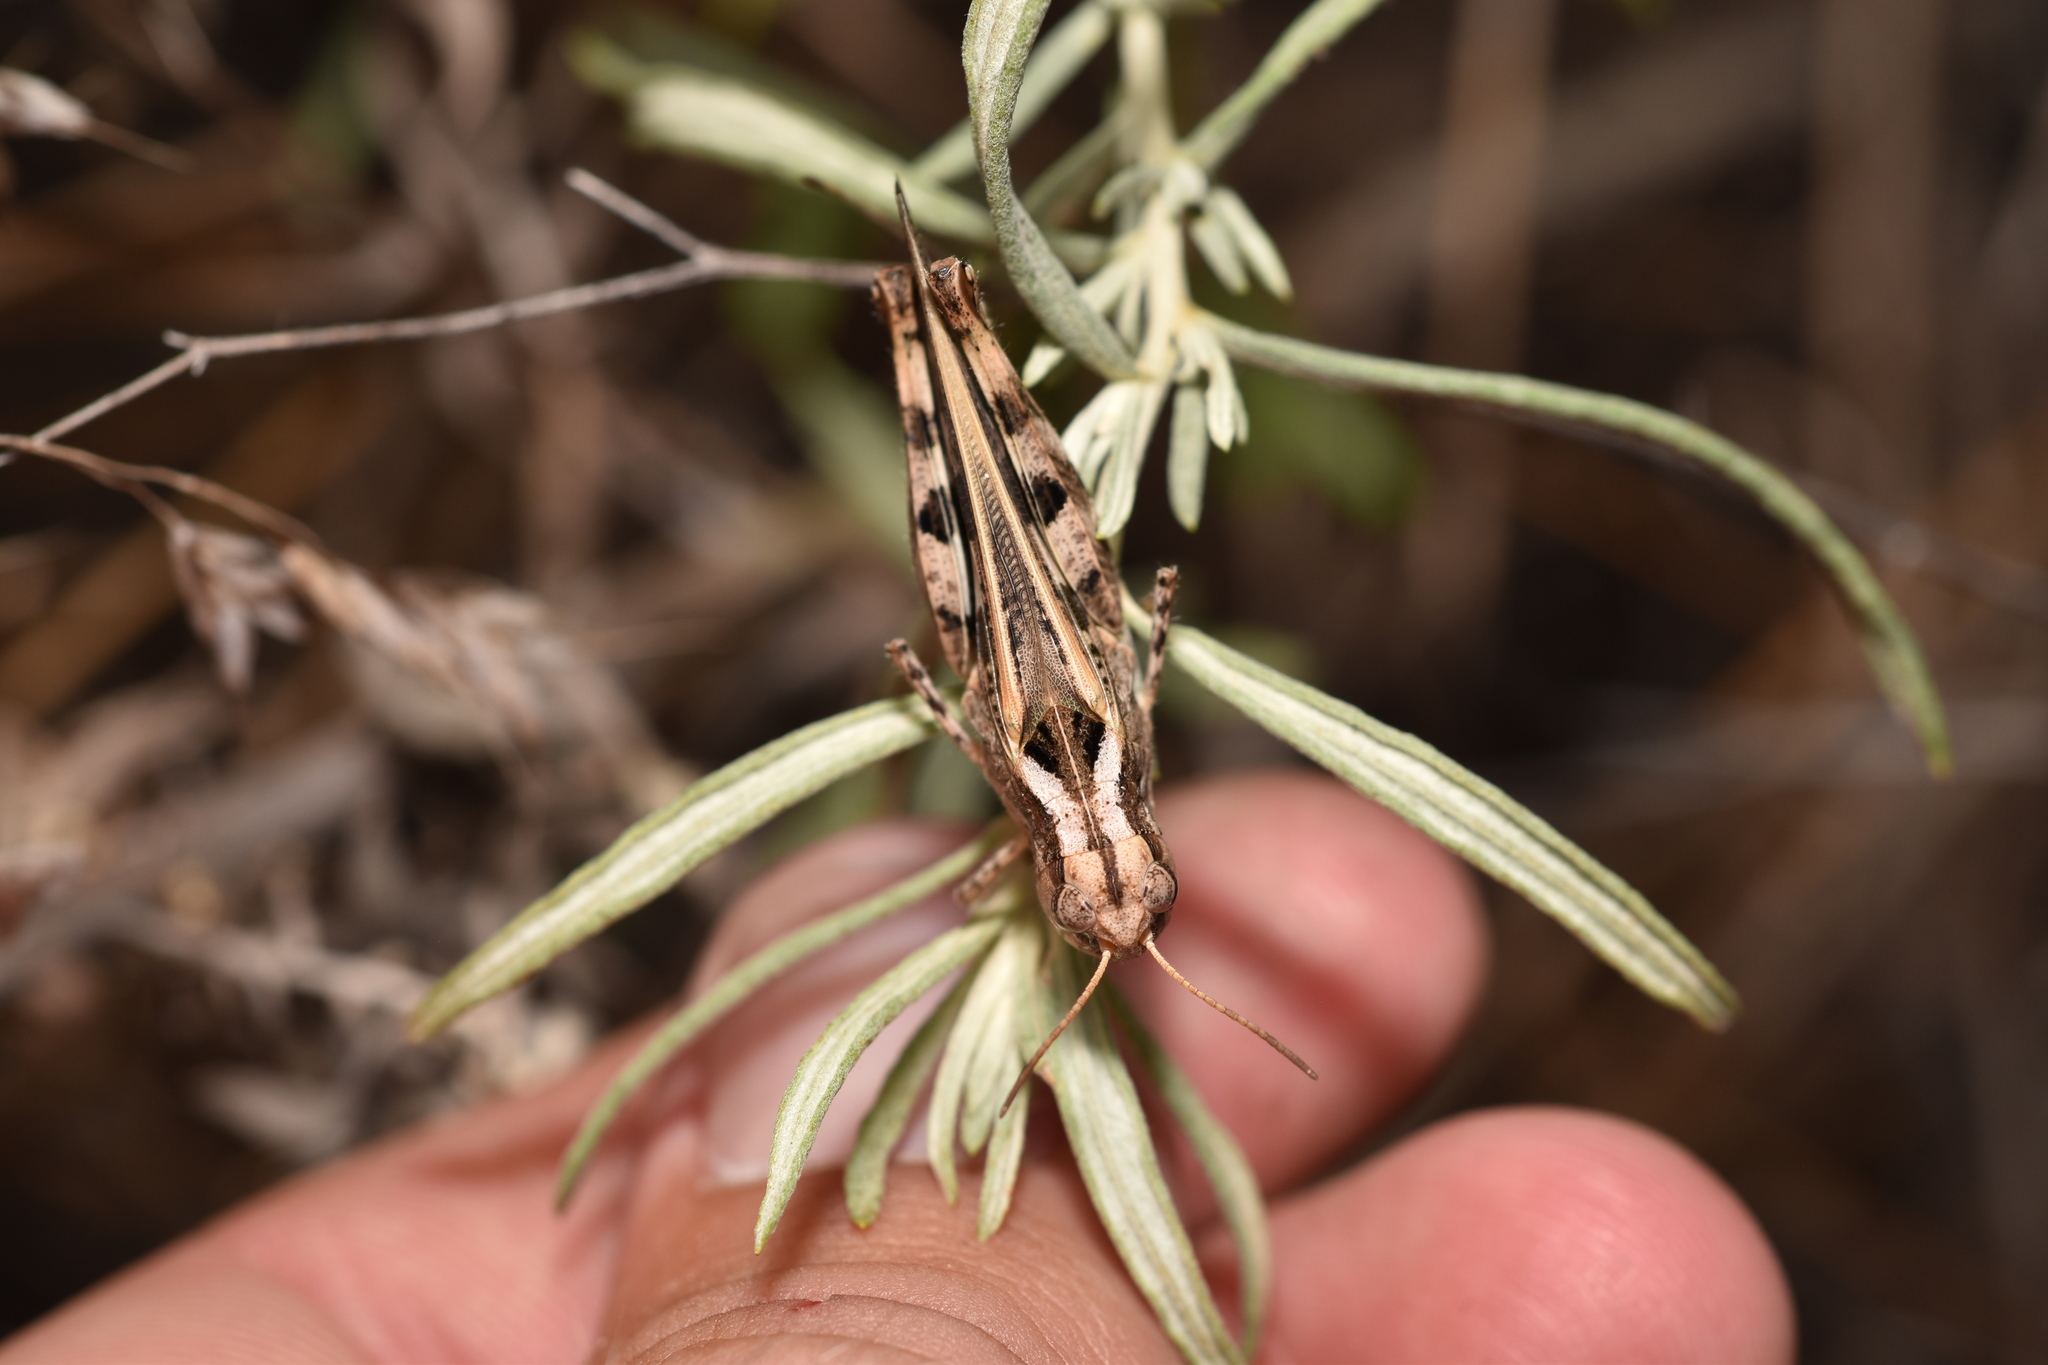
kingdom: Animalia
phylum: Arthropoda
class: Insecta
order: Orthoptera
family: Acrididae
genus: Encoptolophus
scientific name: Encoptolophus costalis
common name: Dusky grasshopper
